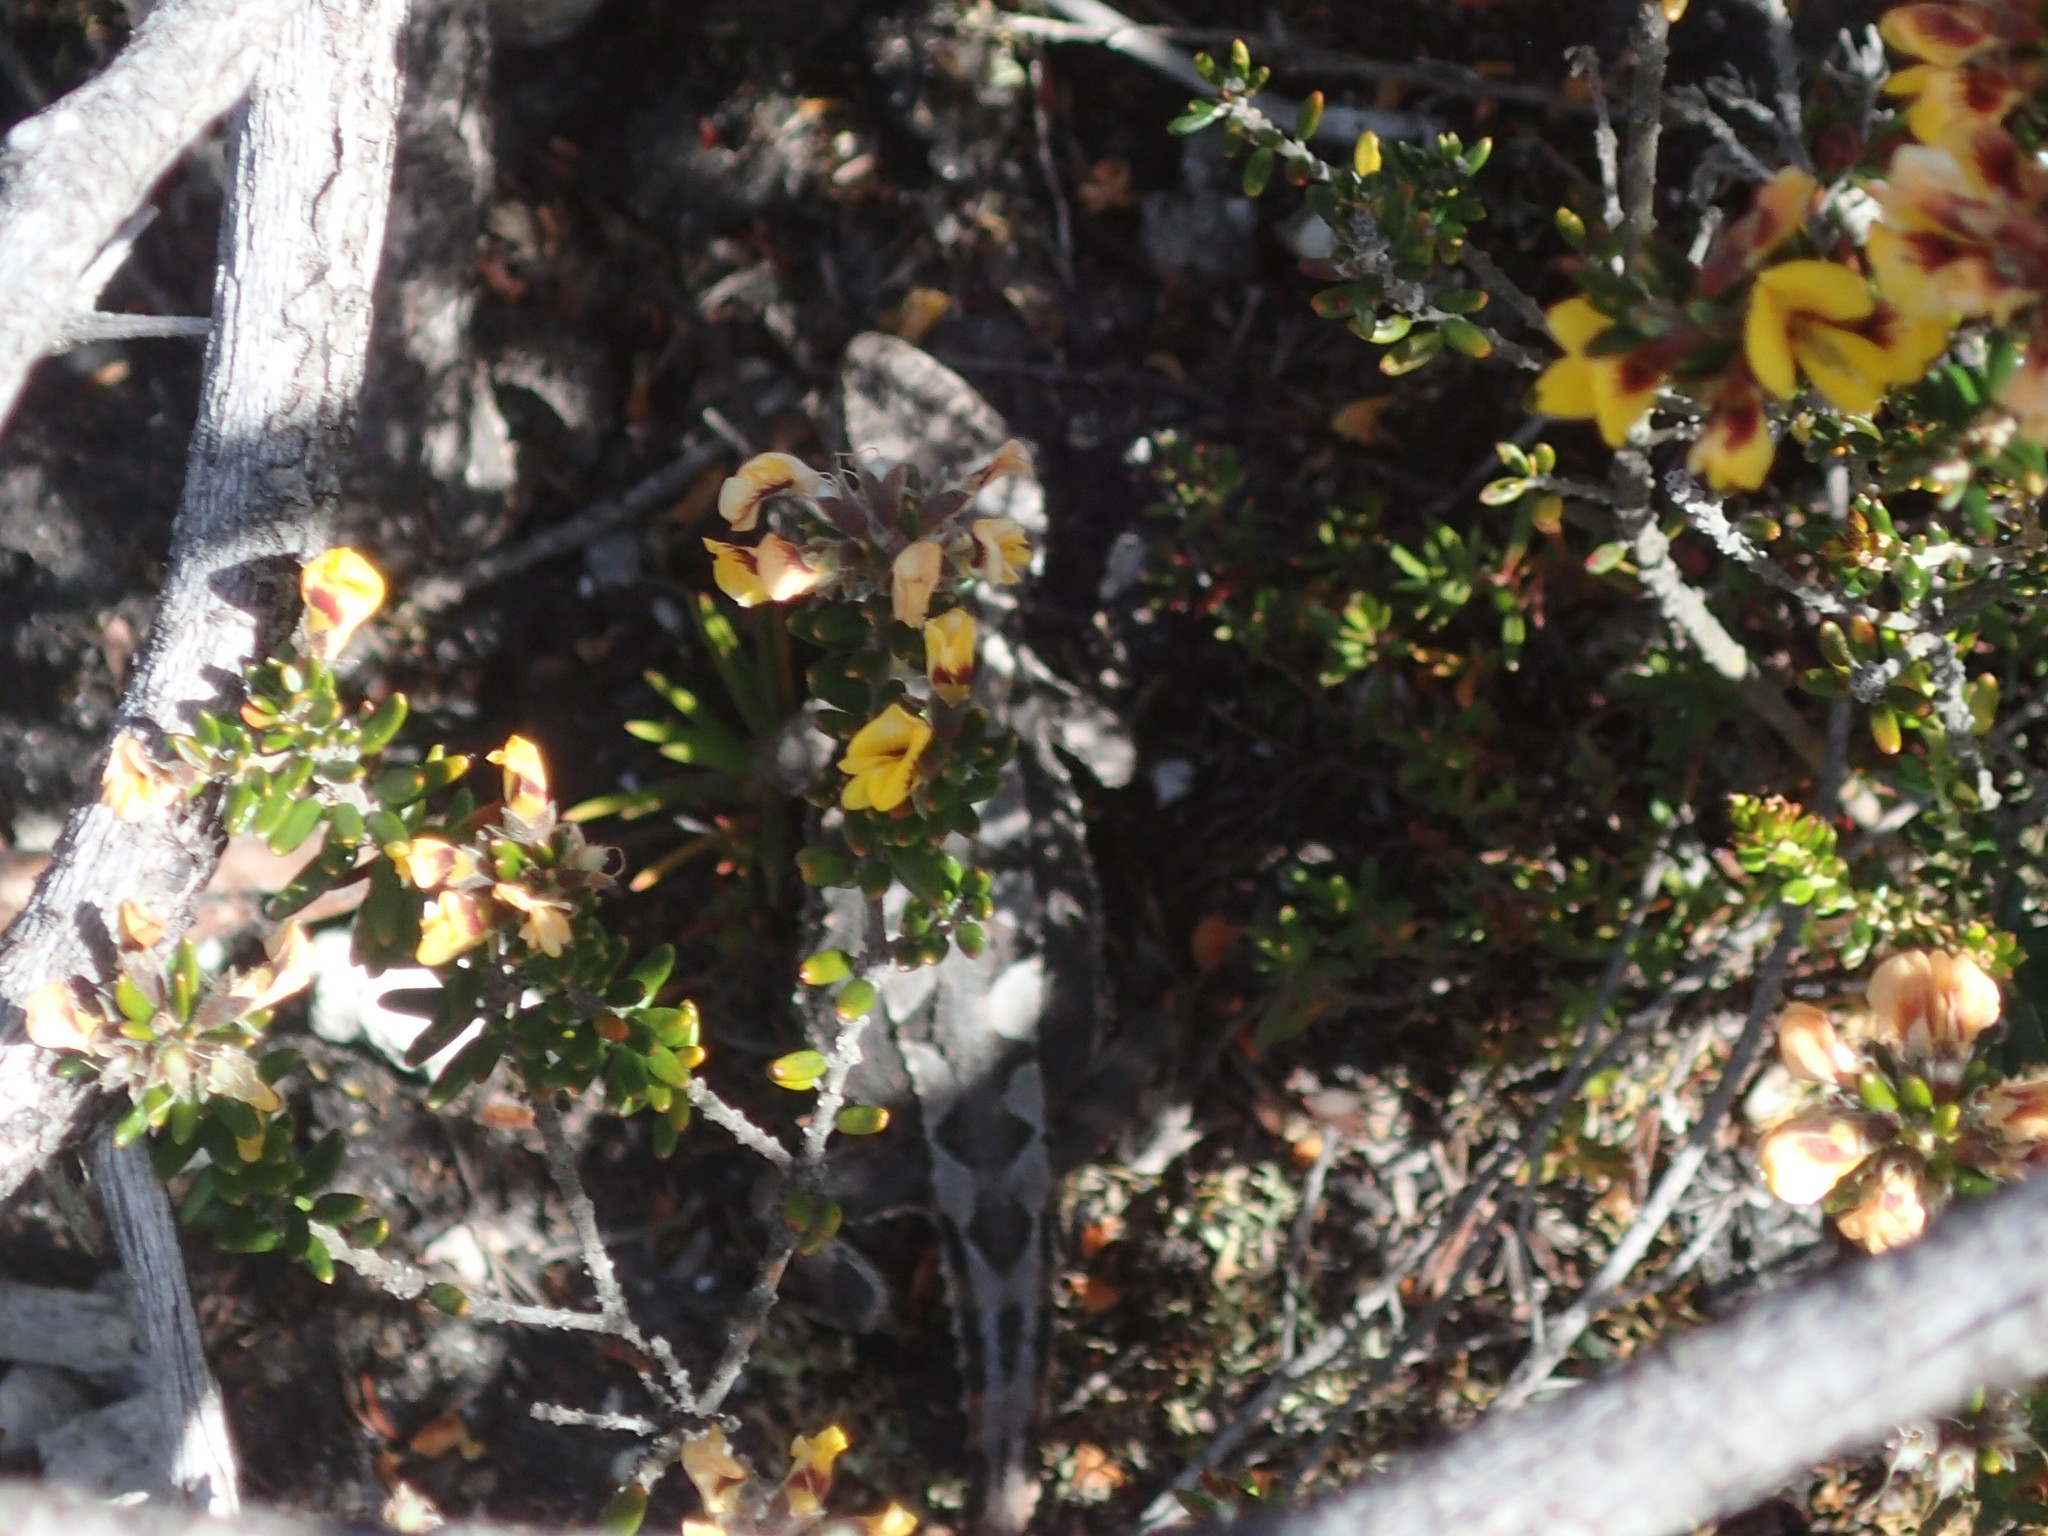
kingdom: Animalia
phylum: Chordata
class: Squamata
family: Agamidae
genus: Rankinia
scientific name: Rankinia diemensis
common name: Mountain dragon
